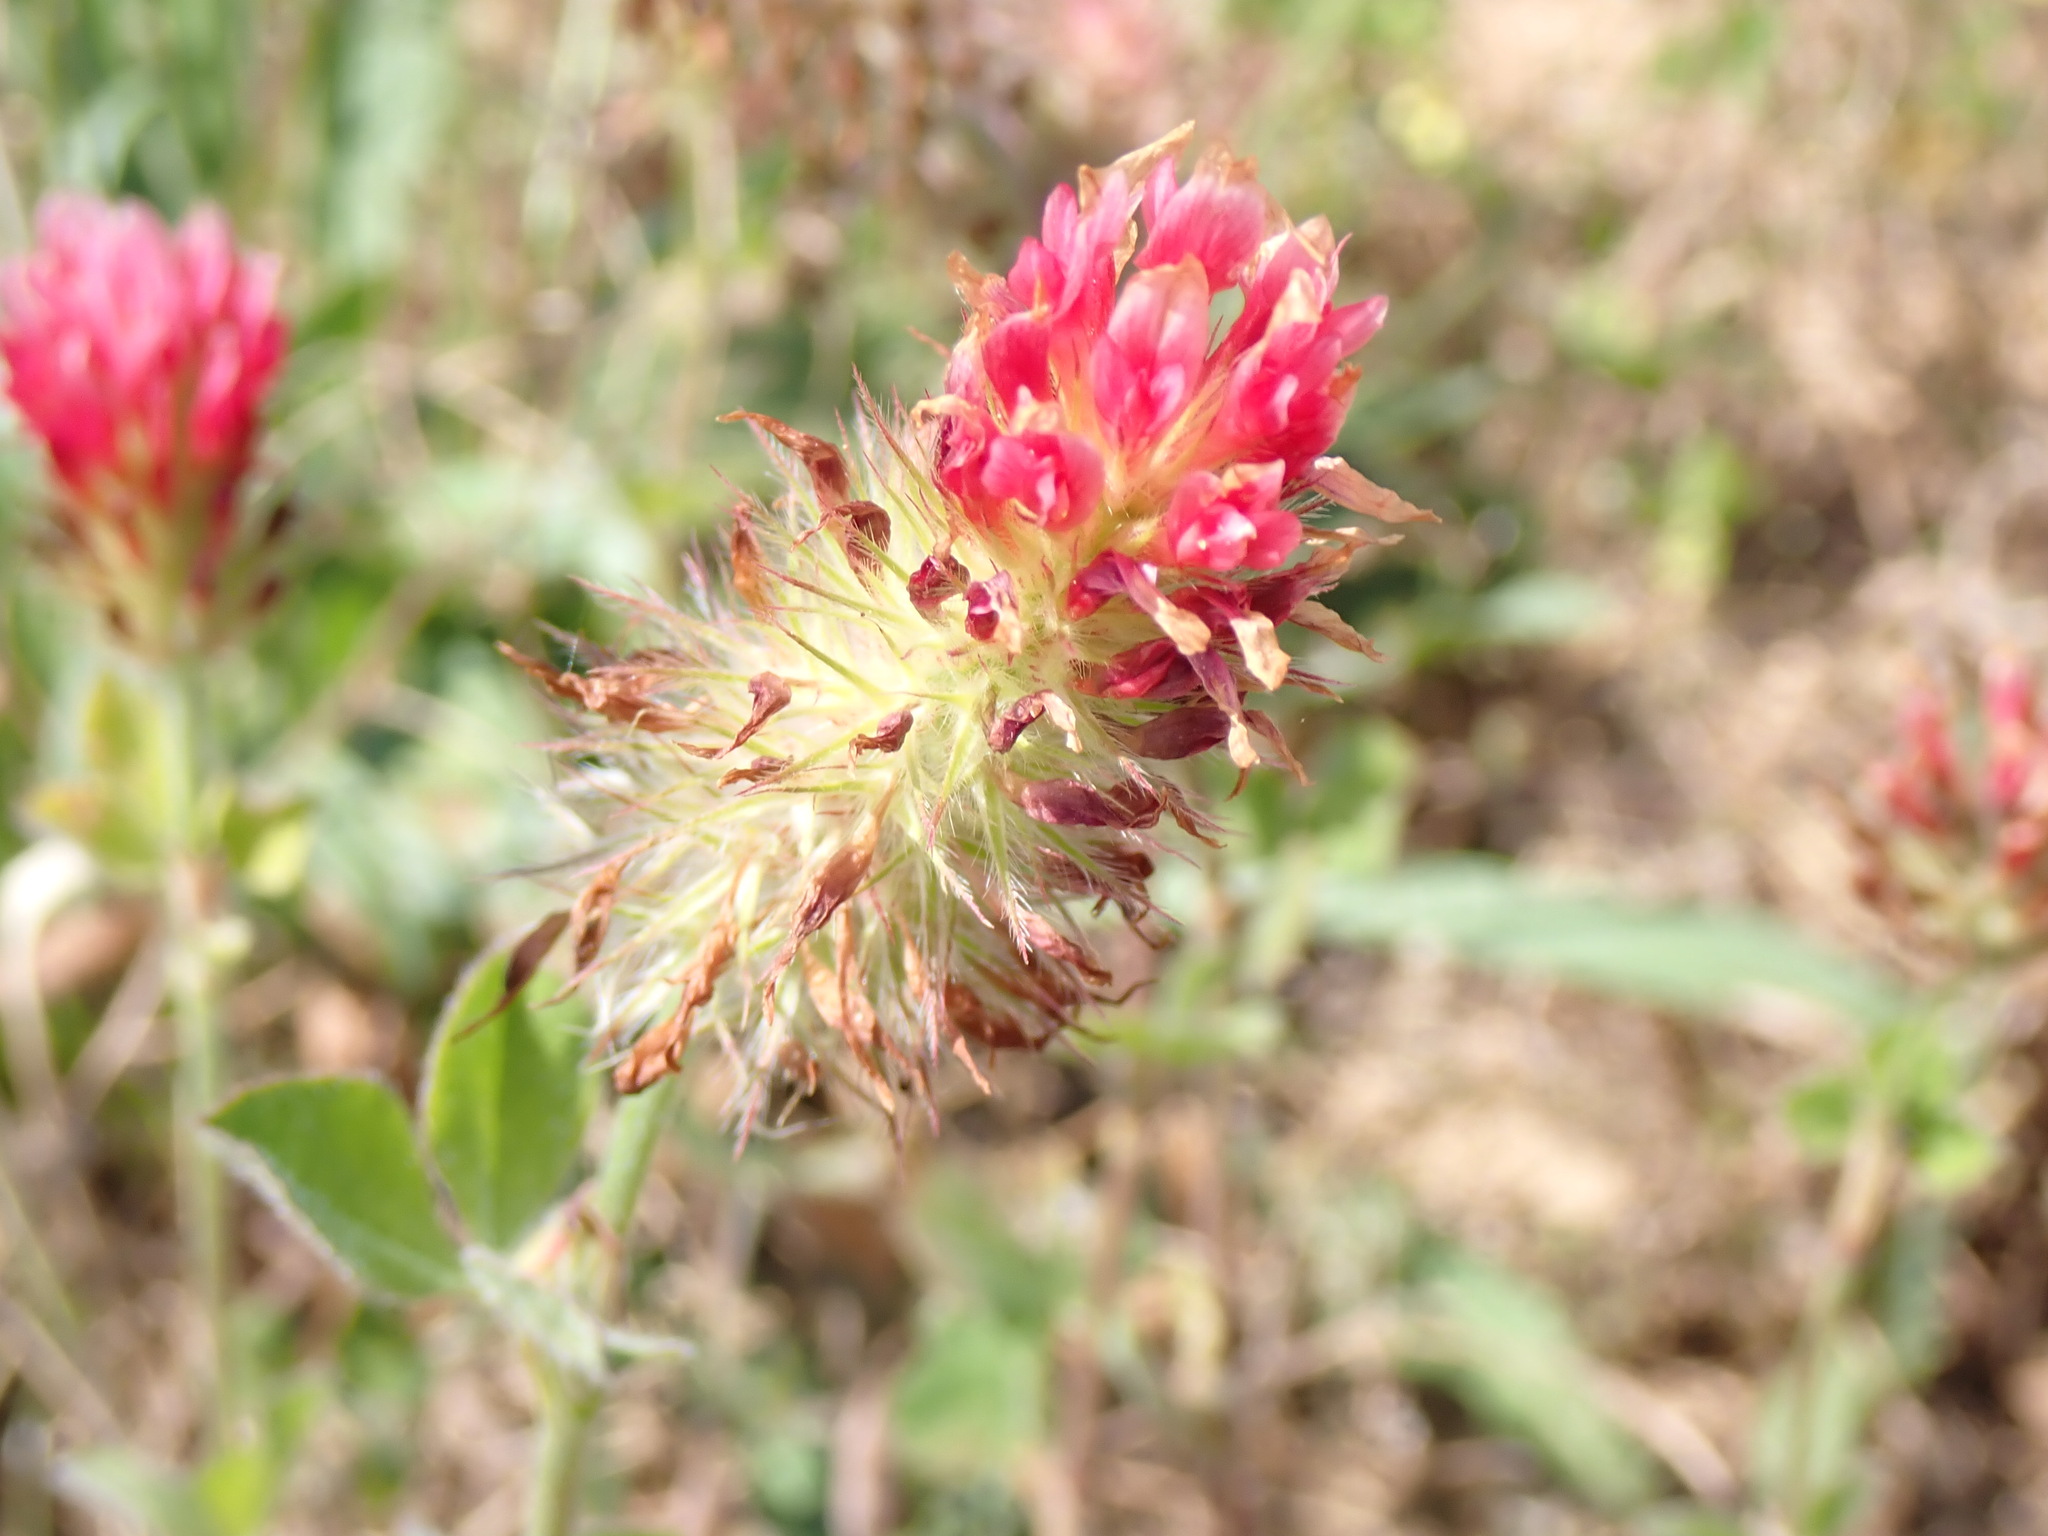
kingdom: Plantae
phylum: Tracheophyta
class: Magnoliopsida
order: Fabales
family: Fabaceae
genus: Trifolium
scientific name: Trifolium incarnatum
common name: Crimson clover
